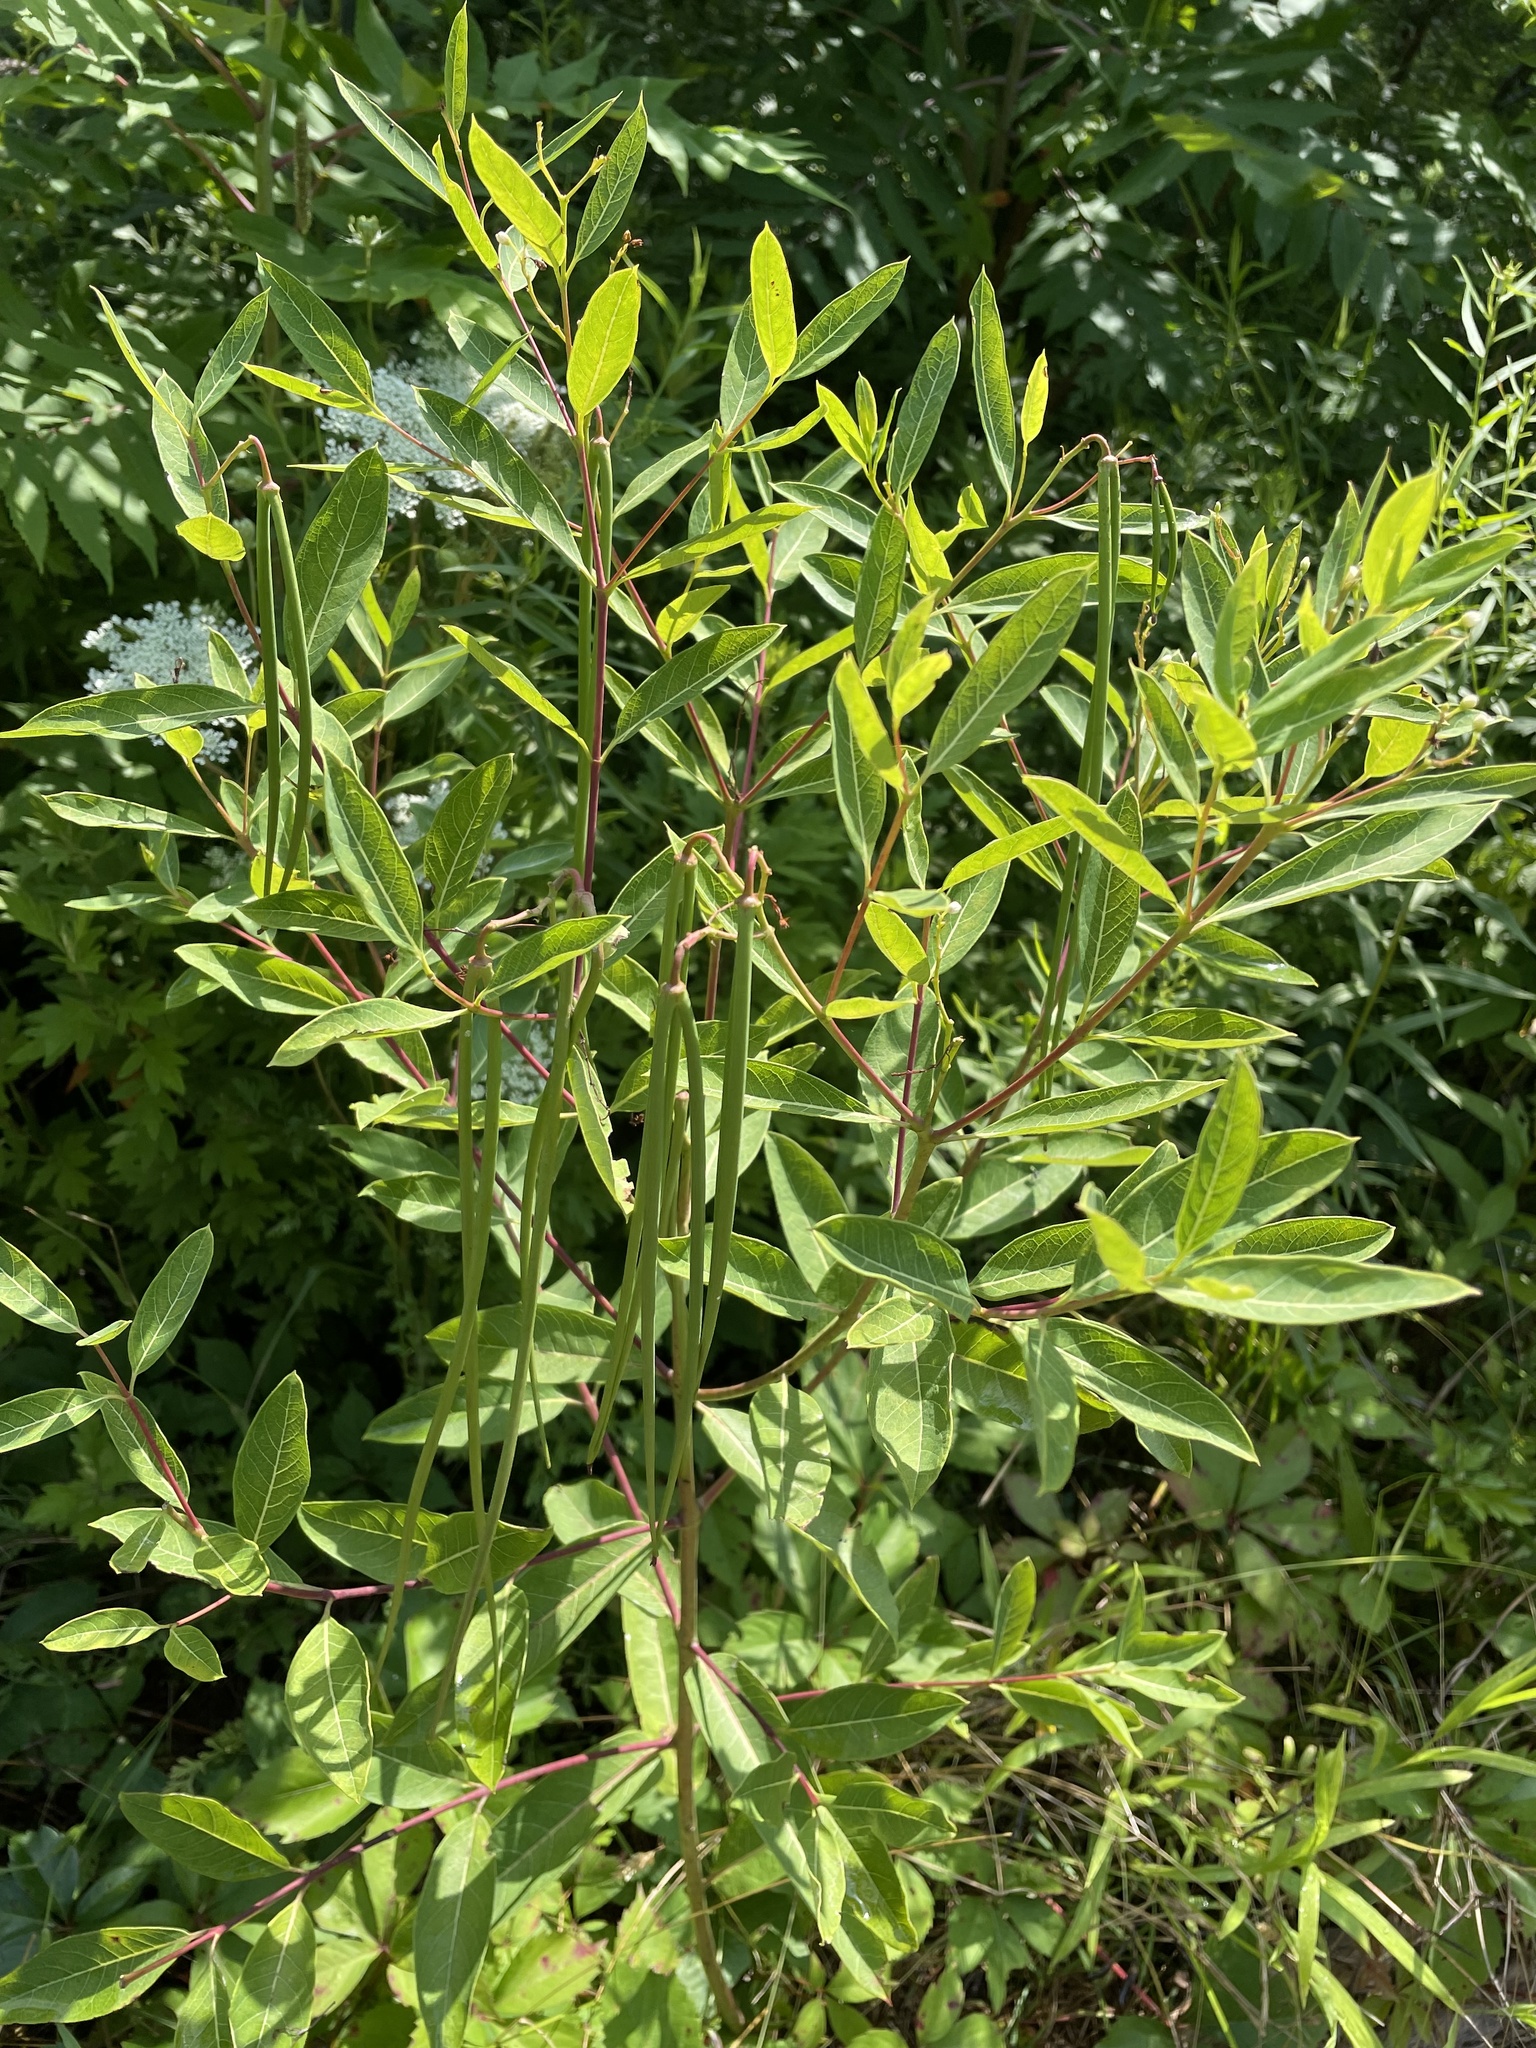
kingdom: Plantae
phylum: Tracheophyta
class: Magnoliopsida
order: Gentianales
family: Apocynaceae
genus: Apocynum
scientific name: Apocynum cannabinum
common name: Hemp dogbane
